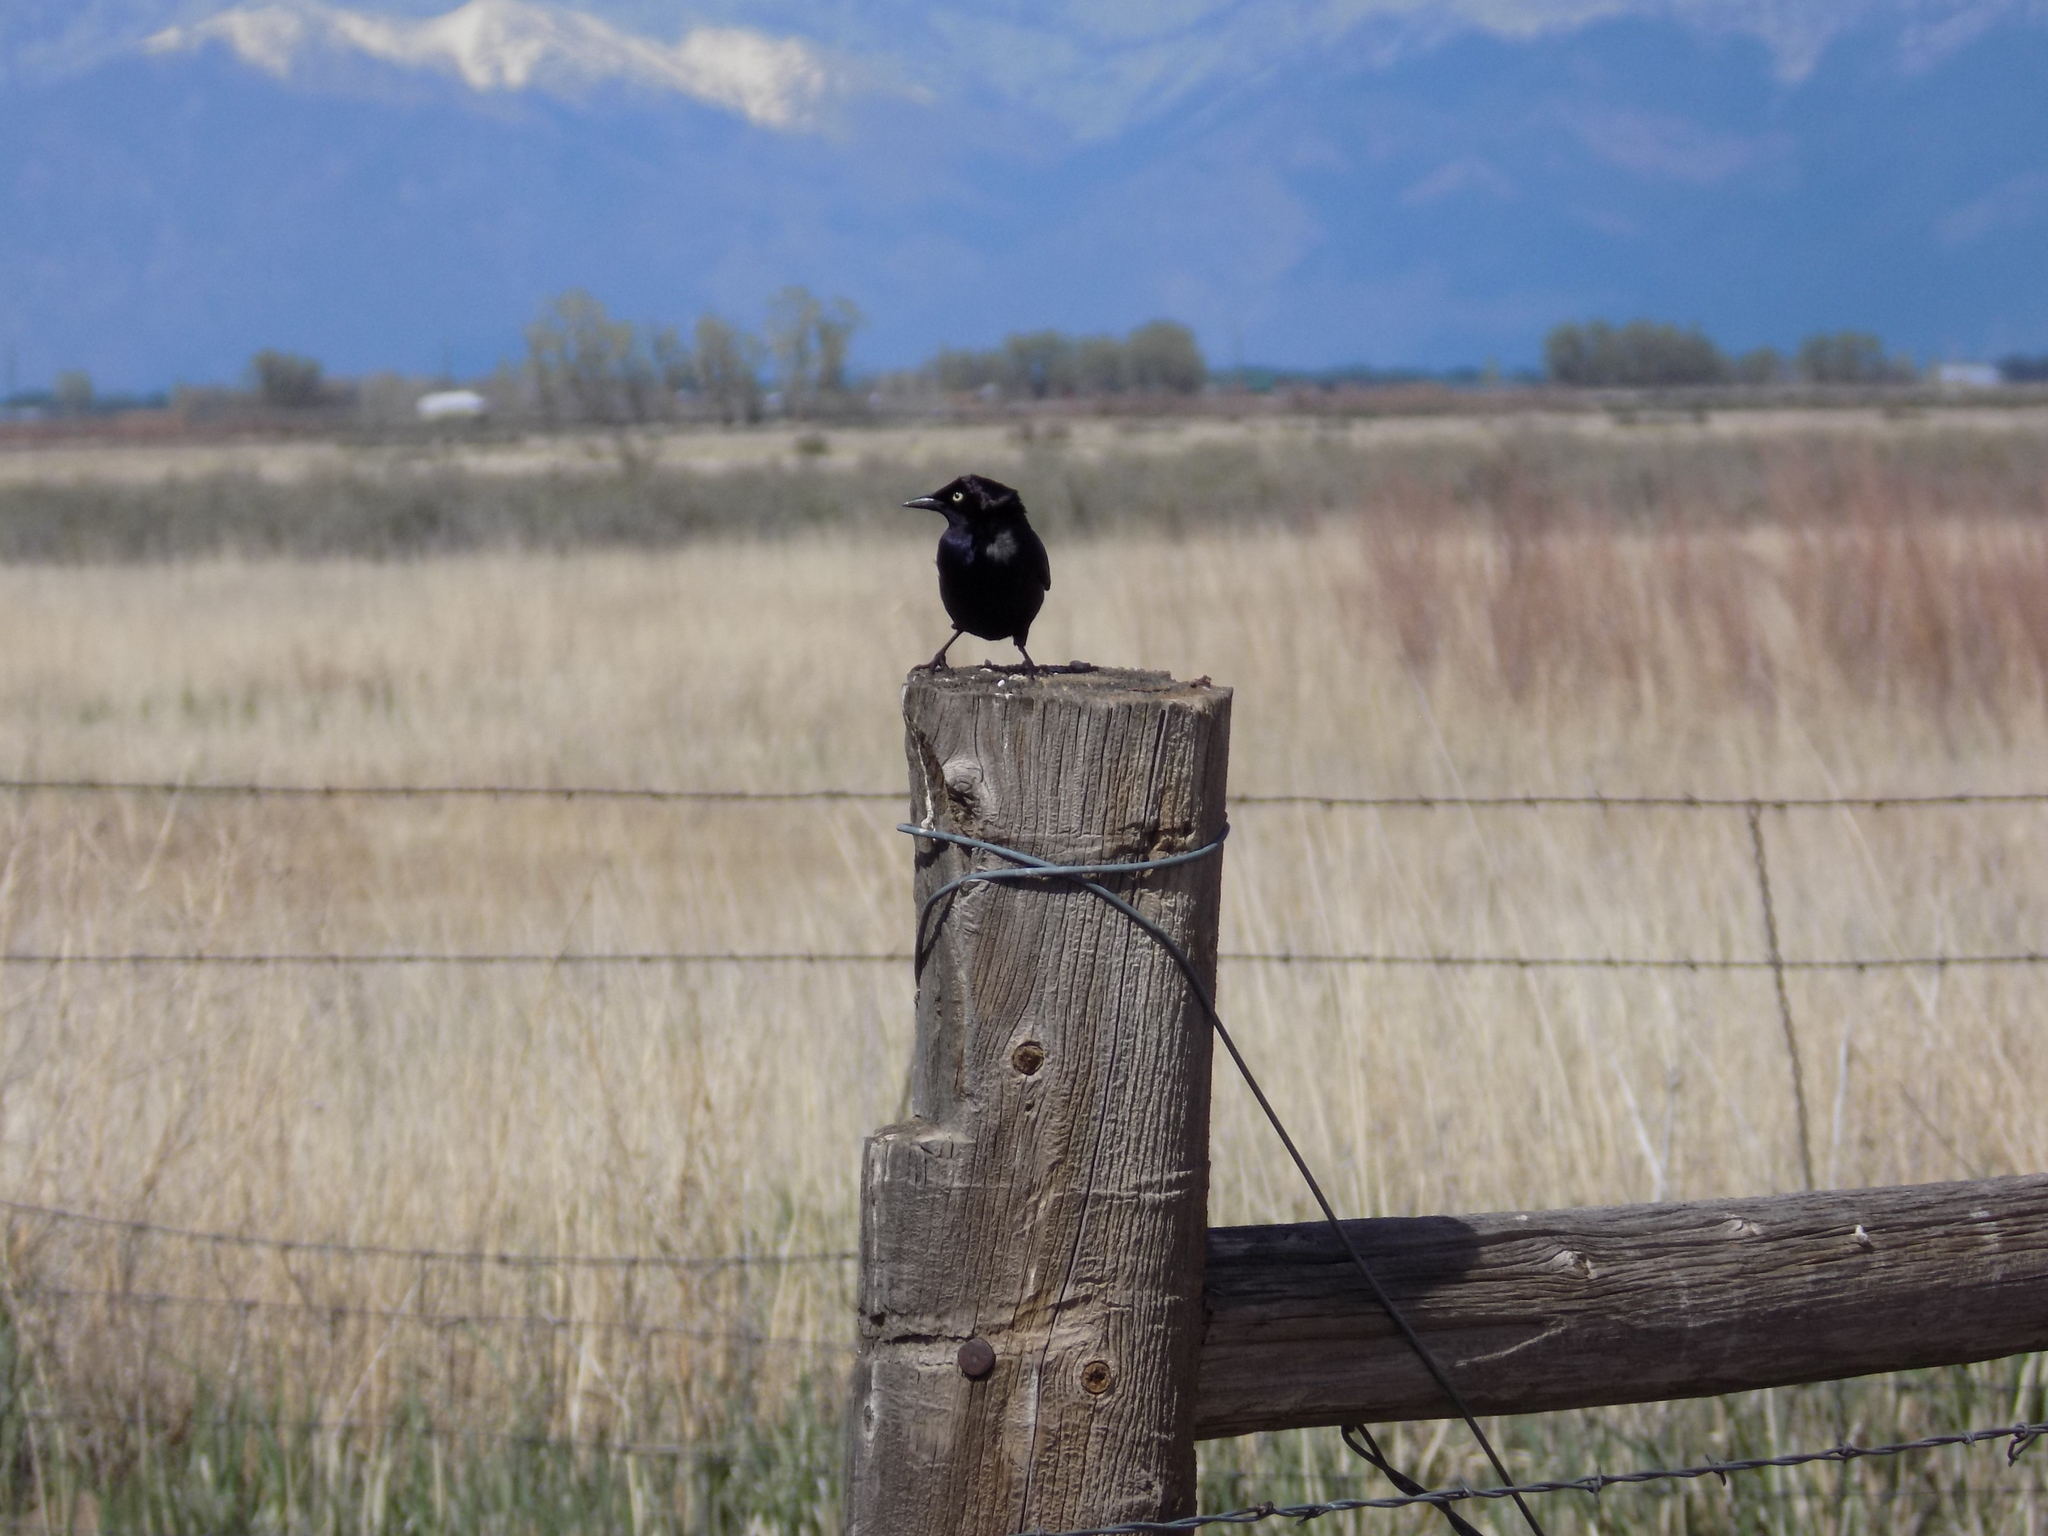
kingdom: Animalia
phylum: Chordata
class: Aves
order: Passeriformes
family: Icteridae
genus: Euphagus
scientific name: Euphagus cyanocephalus
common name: Brewer's blackbird
